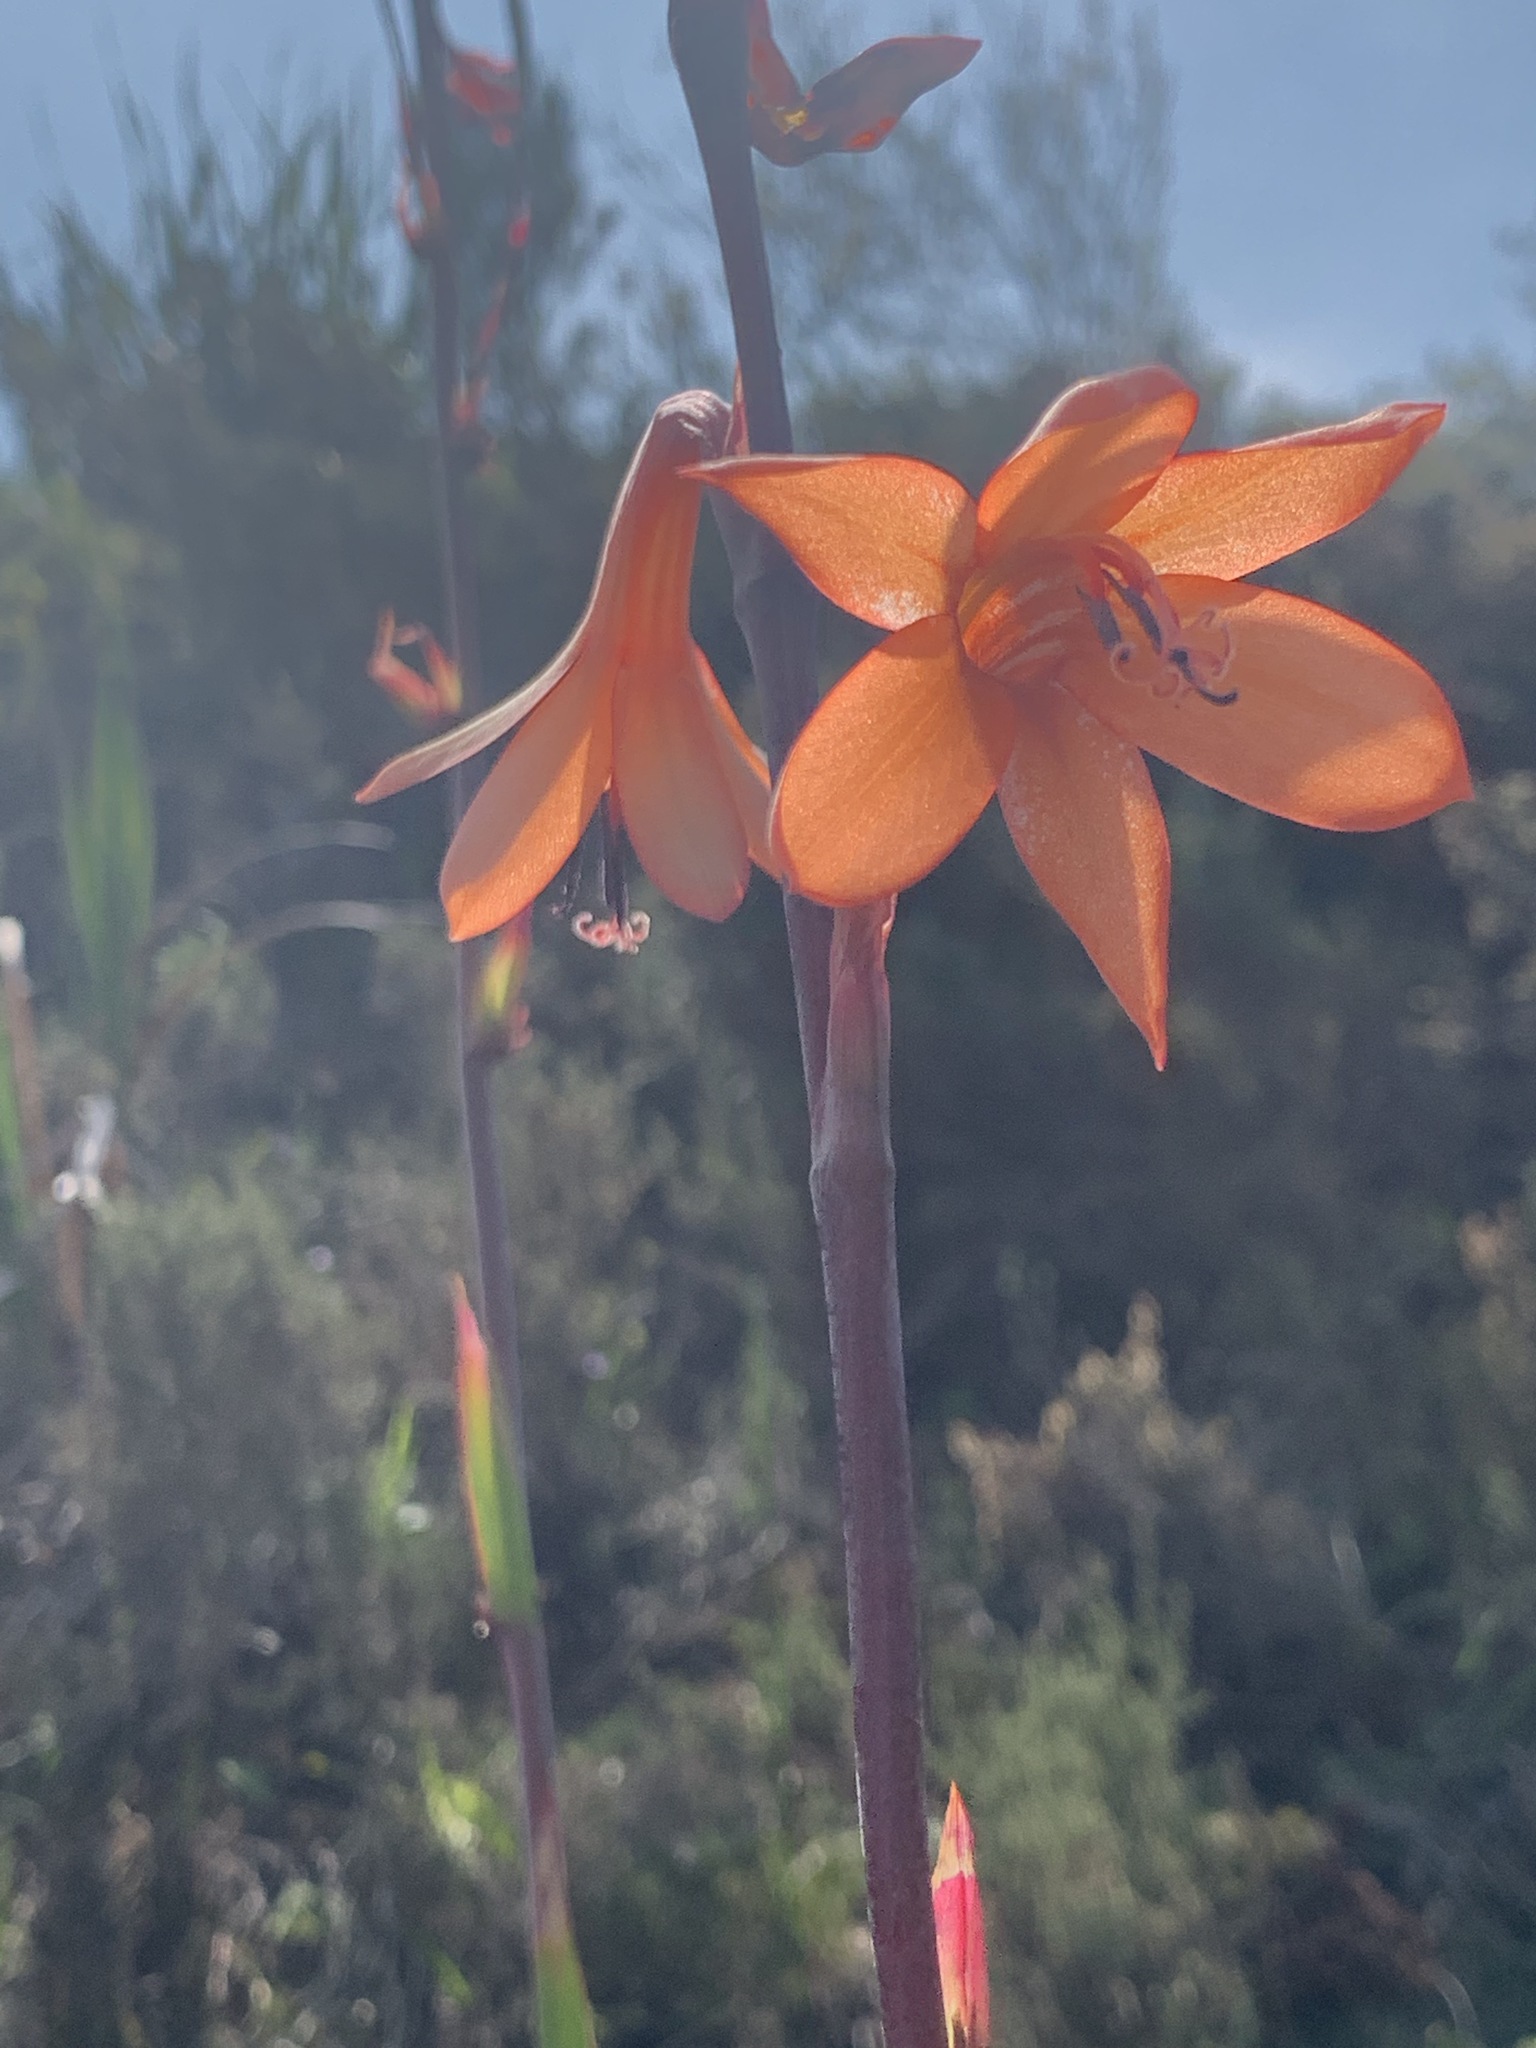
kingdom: Plantae
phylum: Tracheophyta
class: Liliopsida
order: Asparagales
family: Iridaceae
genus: Watsonia
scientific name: Watsonia tabularis
